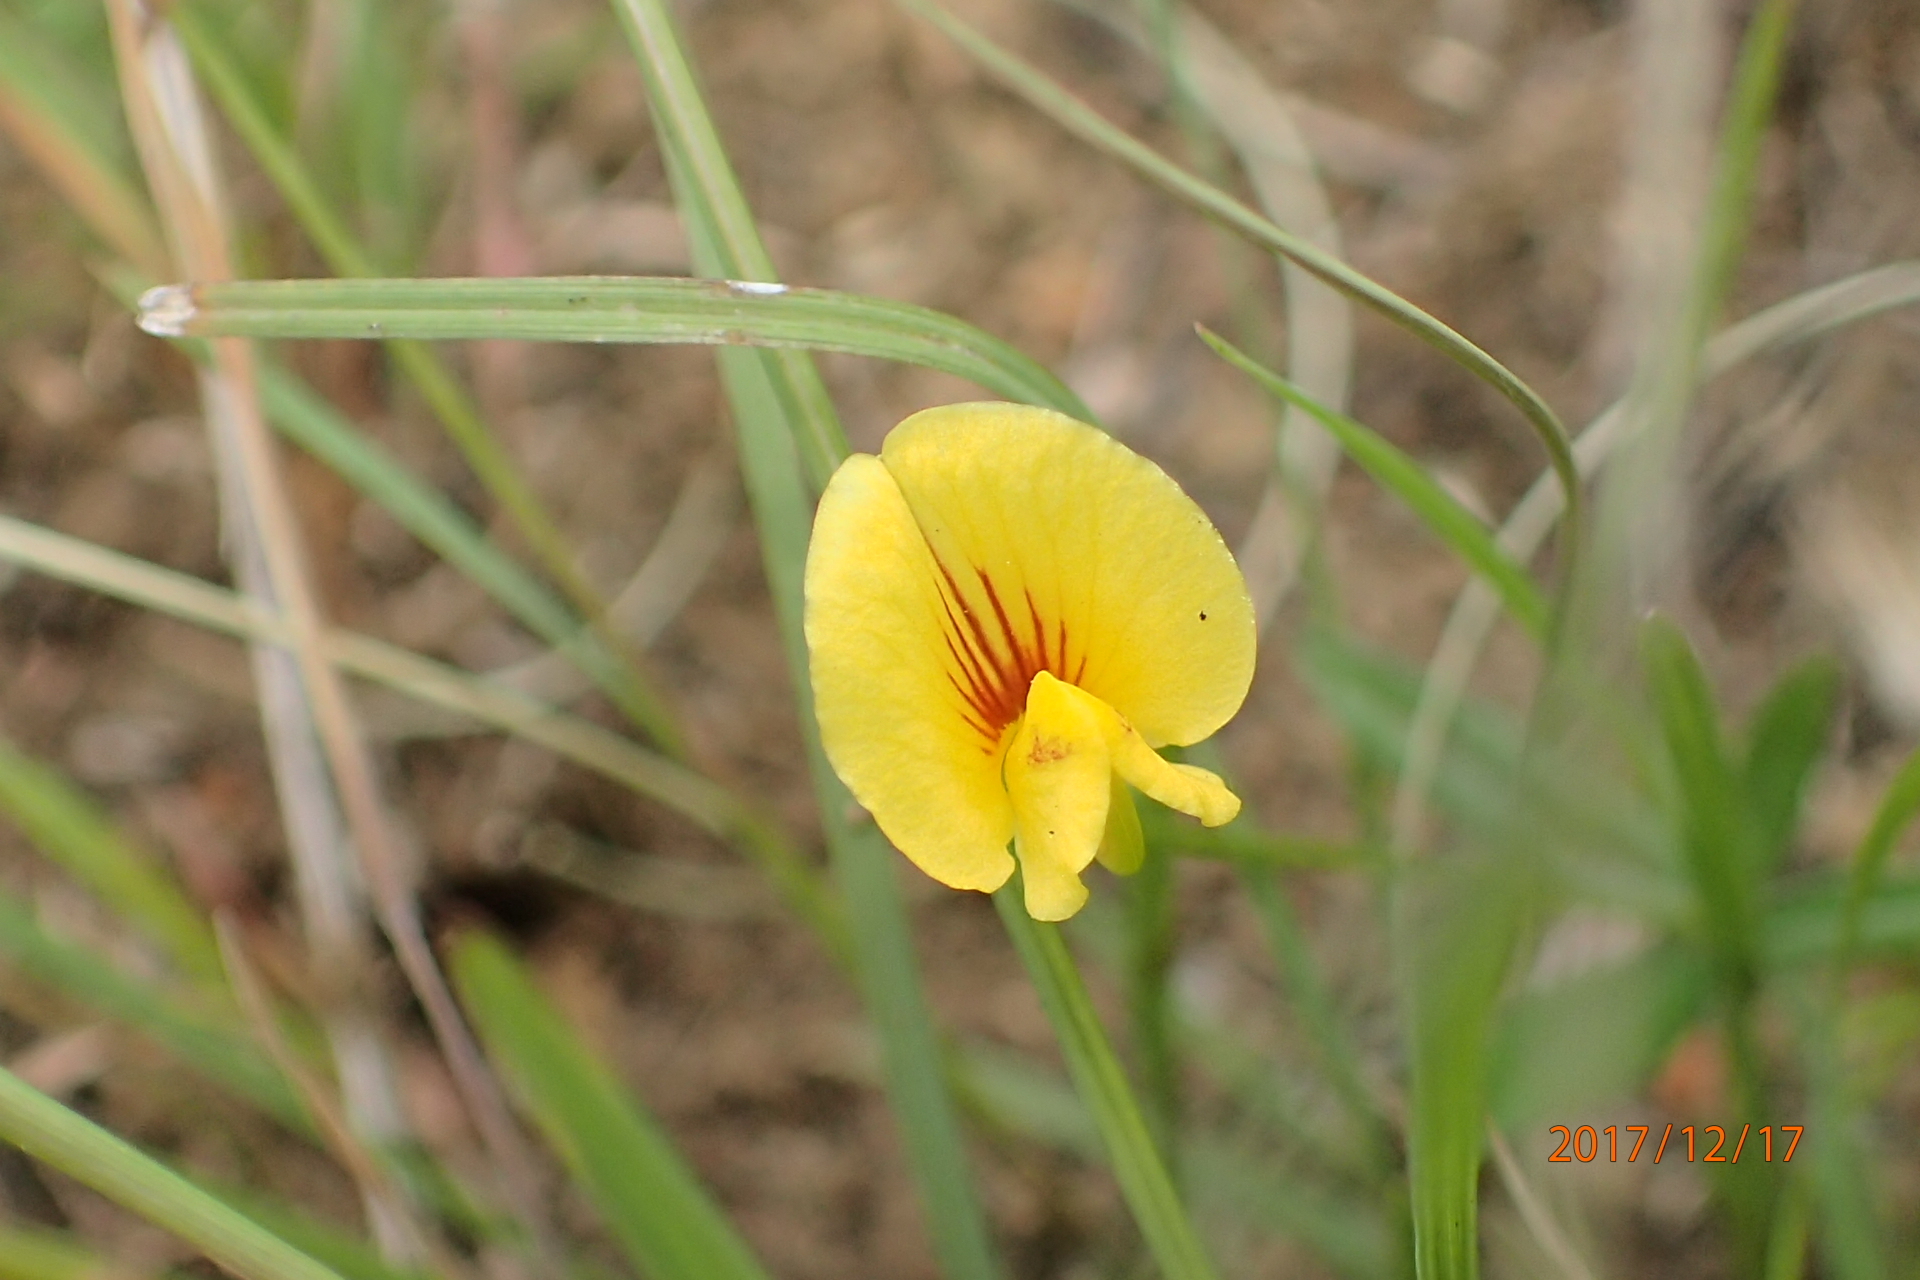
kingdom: Plantae
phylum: Tracheophyta
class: Magnoliopsida
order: Fabales
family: Fabaceae
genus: Zornia
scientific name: Zornia capensis
